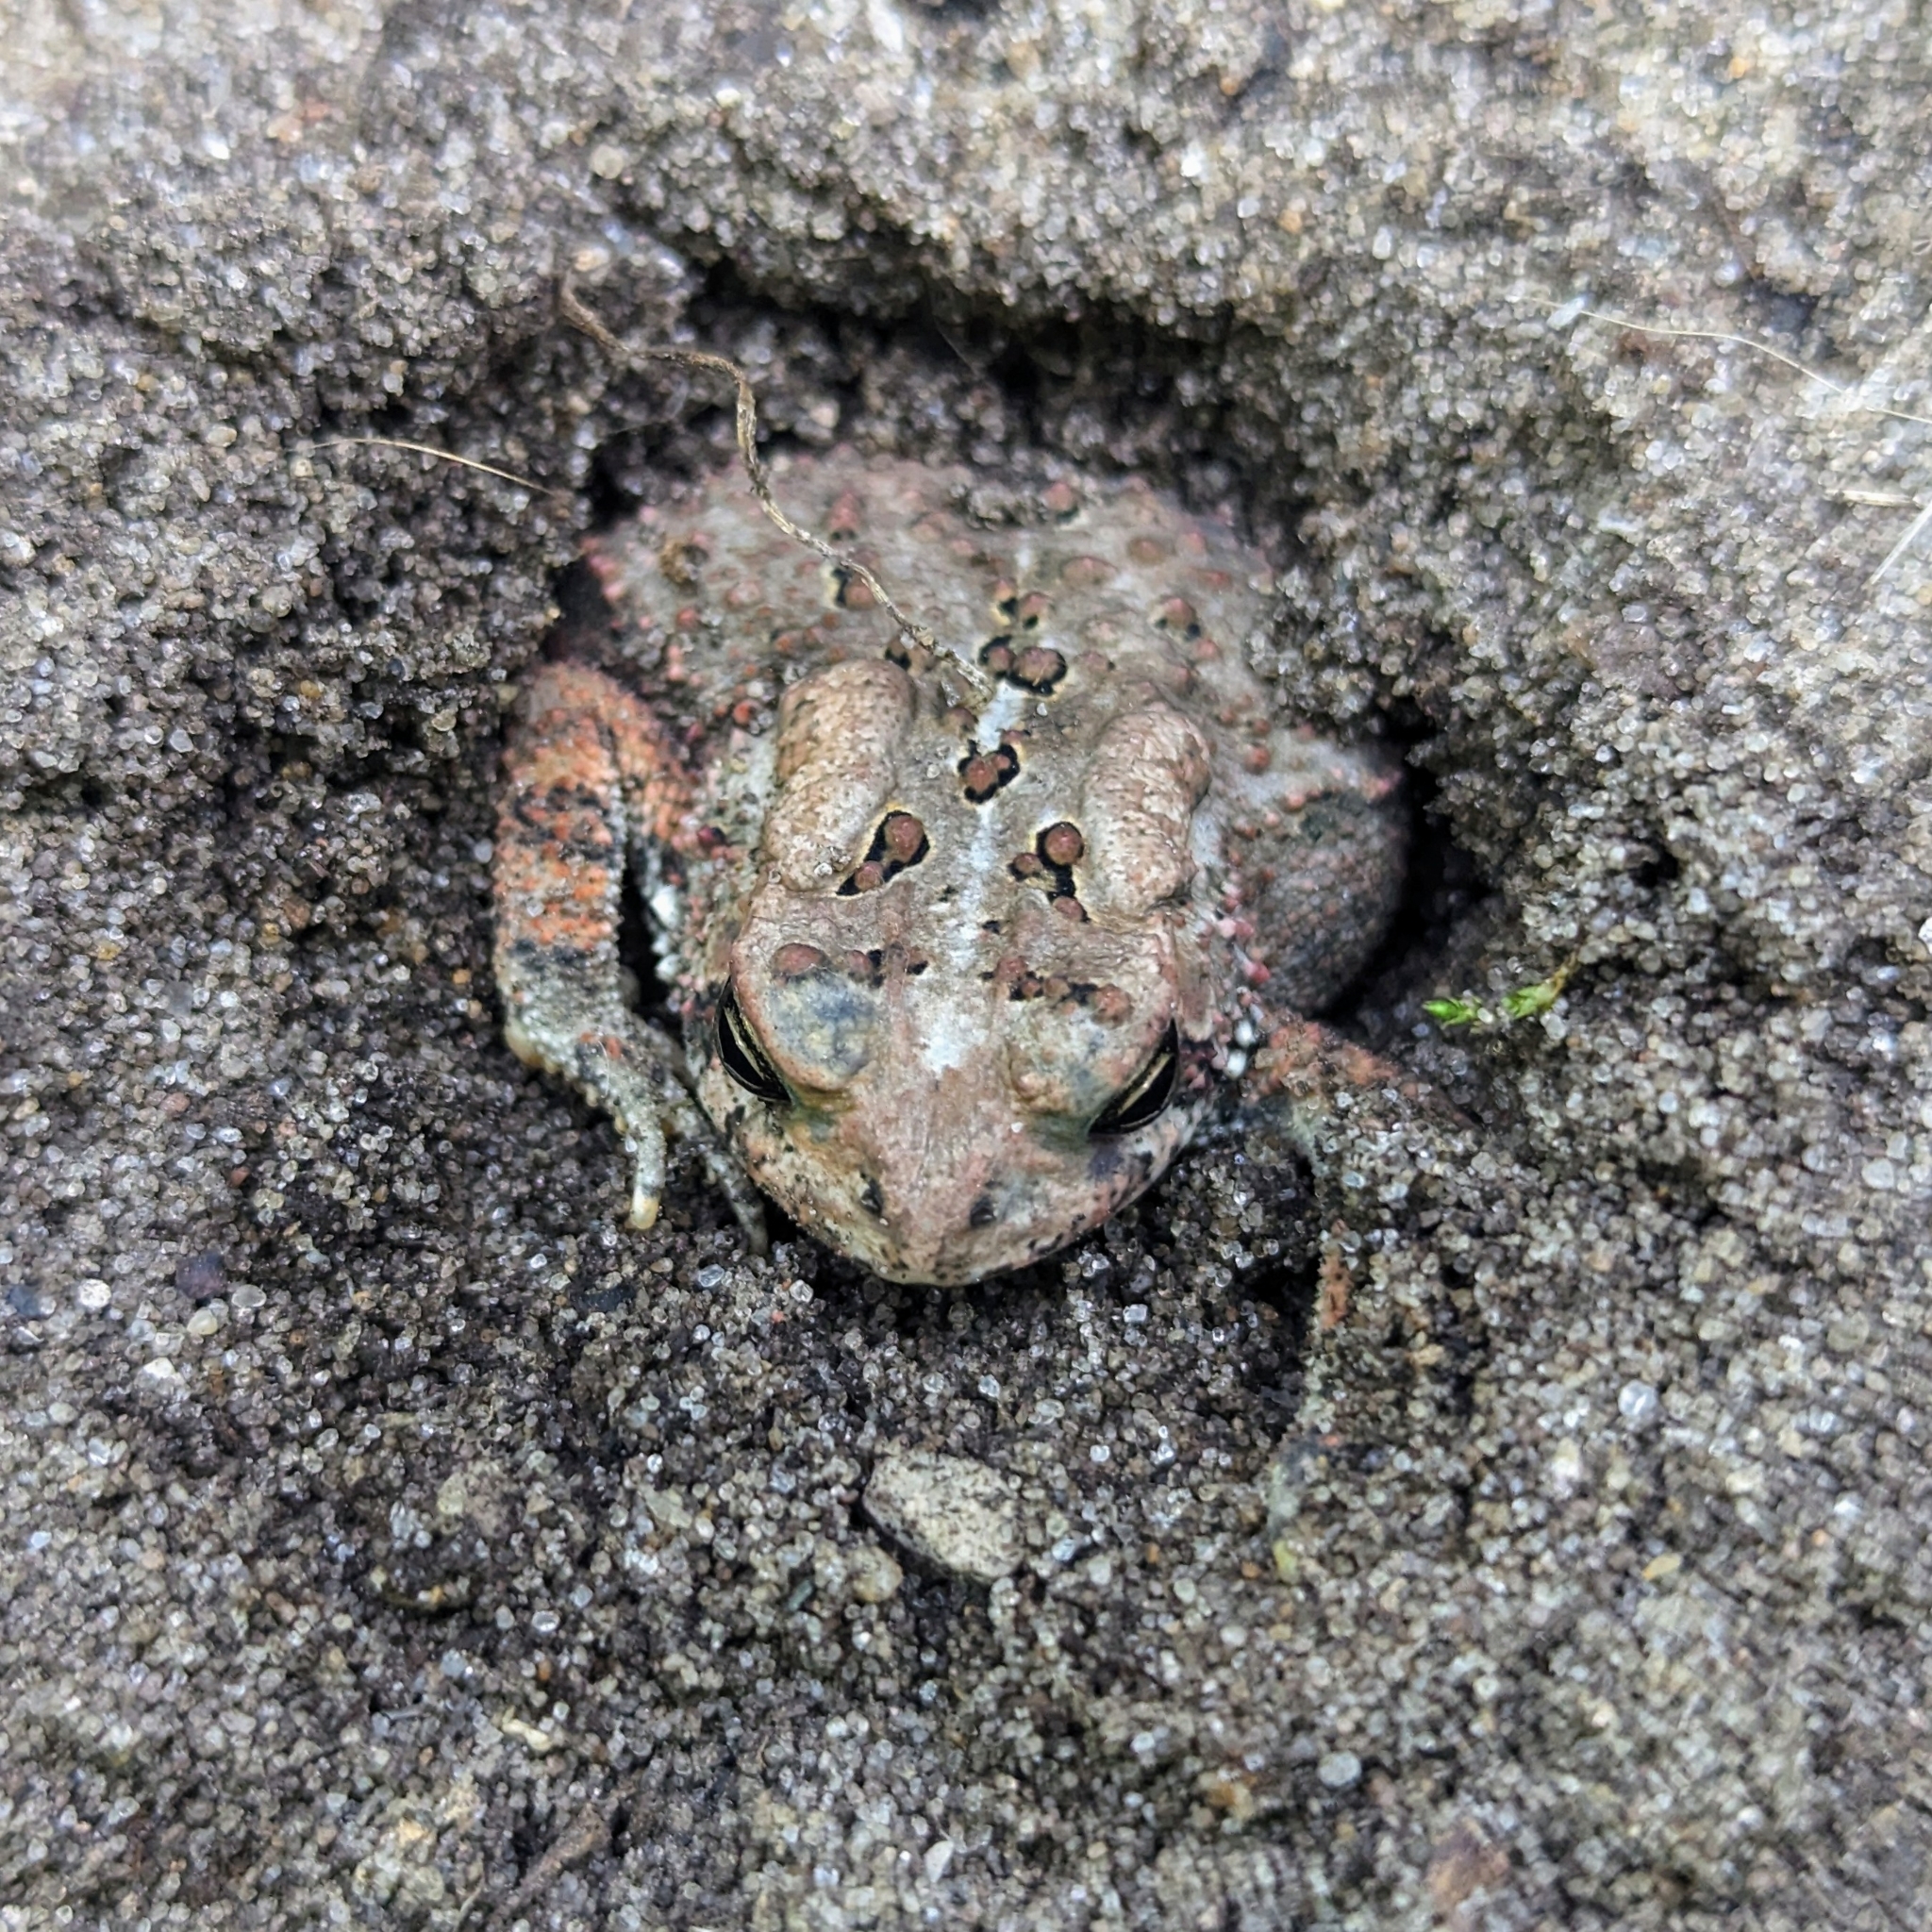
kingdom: Animalia
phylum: Chordata
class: Amphibia
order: Anura
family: Bufonidae
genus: Anaxyrus
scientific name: Anaxyrus americanus
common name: American toad
